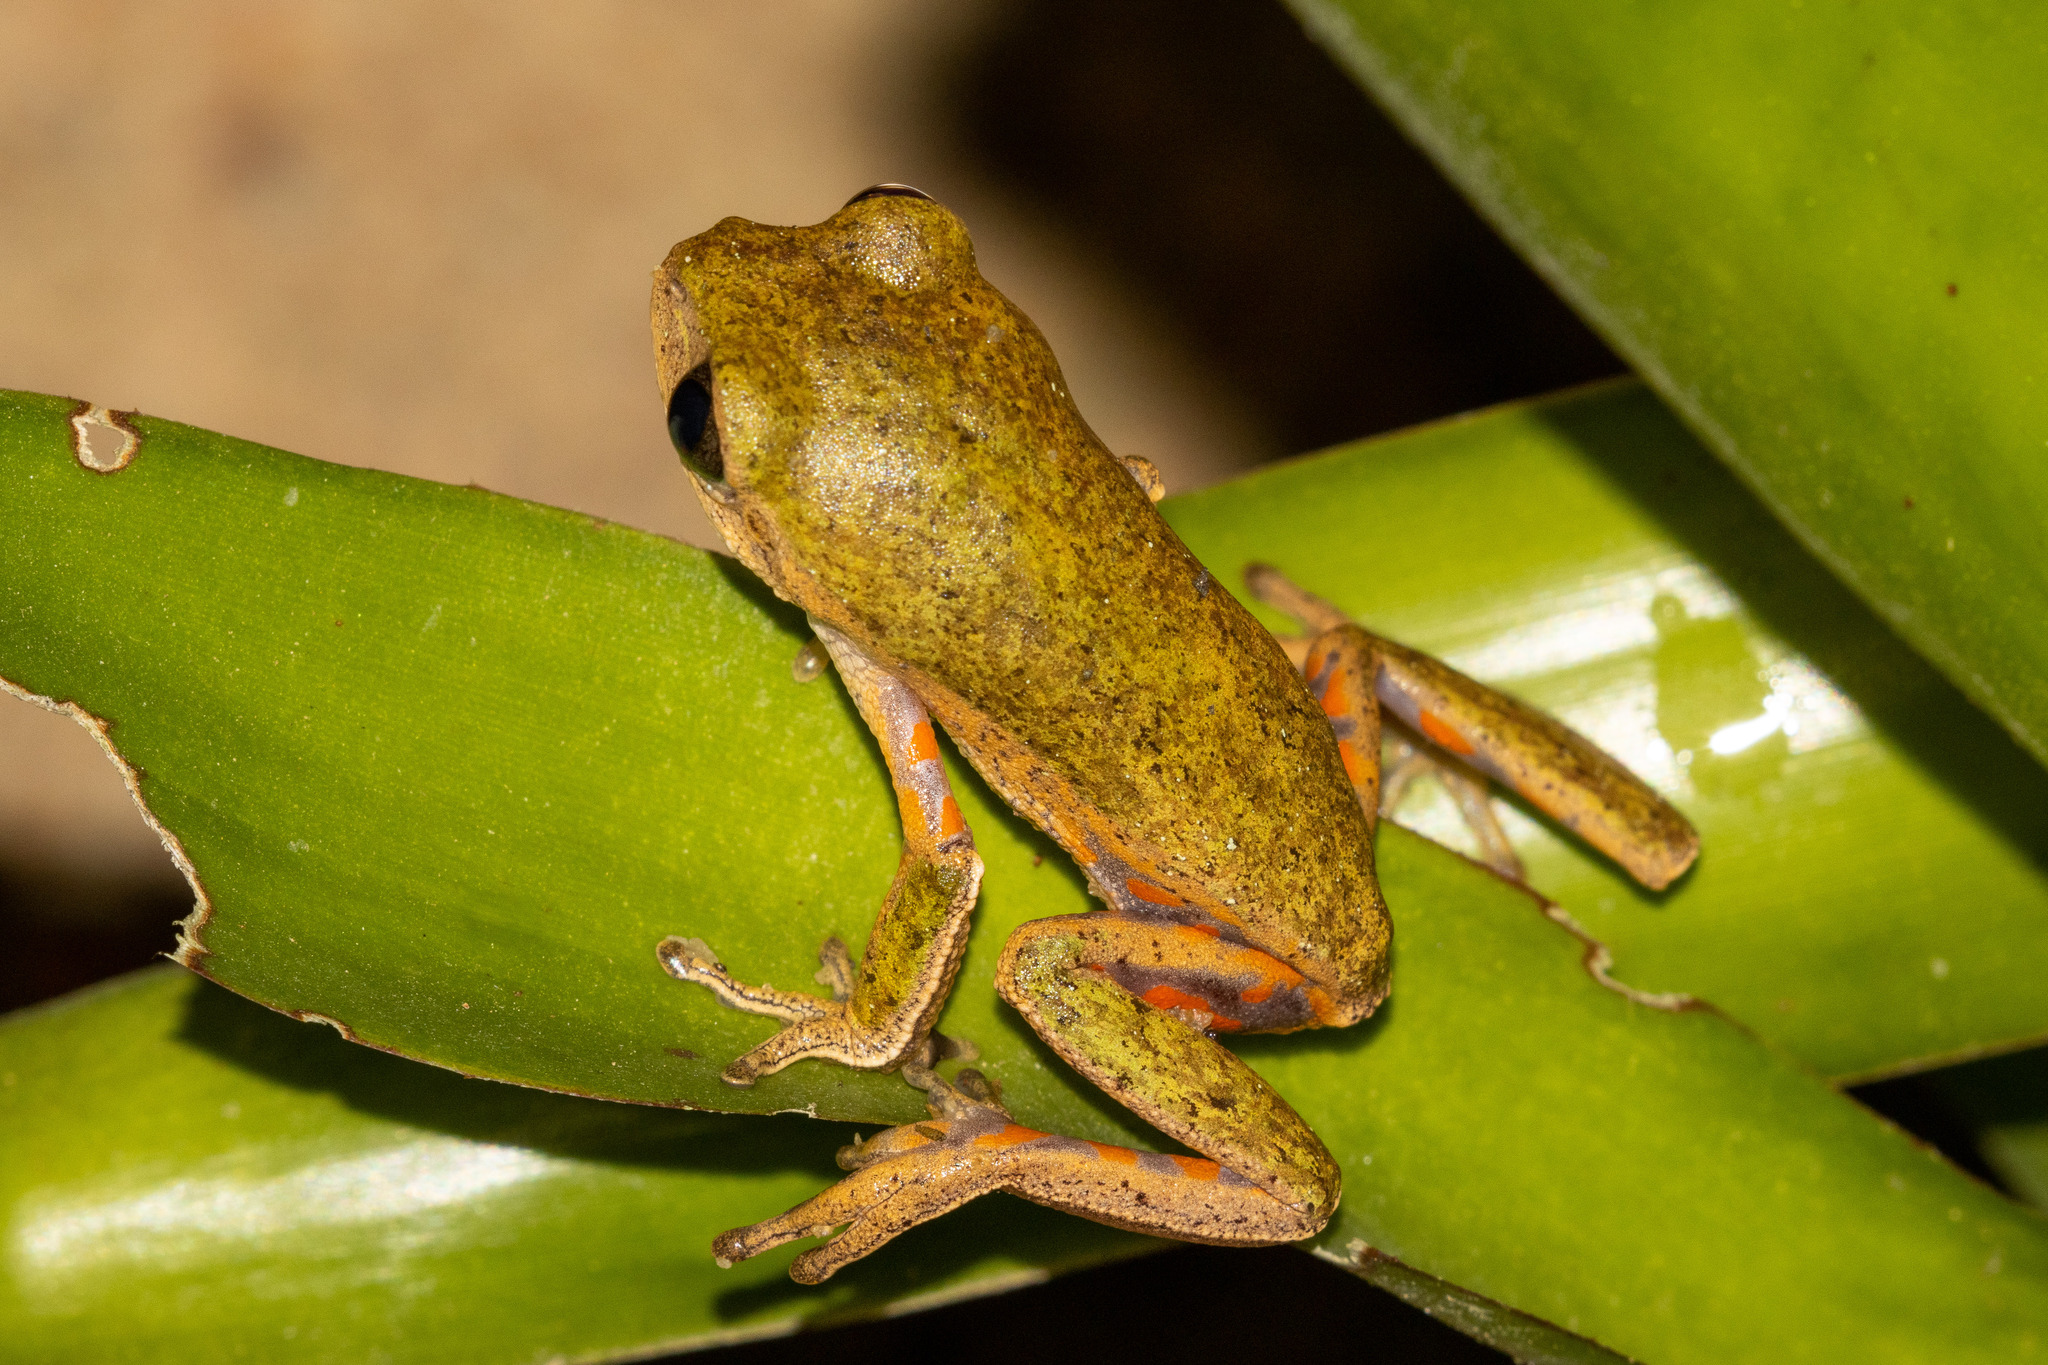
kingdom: Animalia
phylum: Chordata
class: Amphibia
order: Anura
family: Phyllomedusidae
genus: Pithecopus
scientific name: Pithecopus rohdei
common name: Mertens' leaf frog
